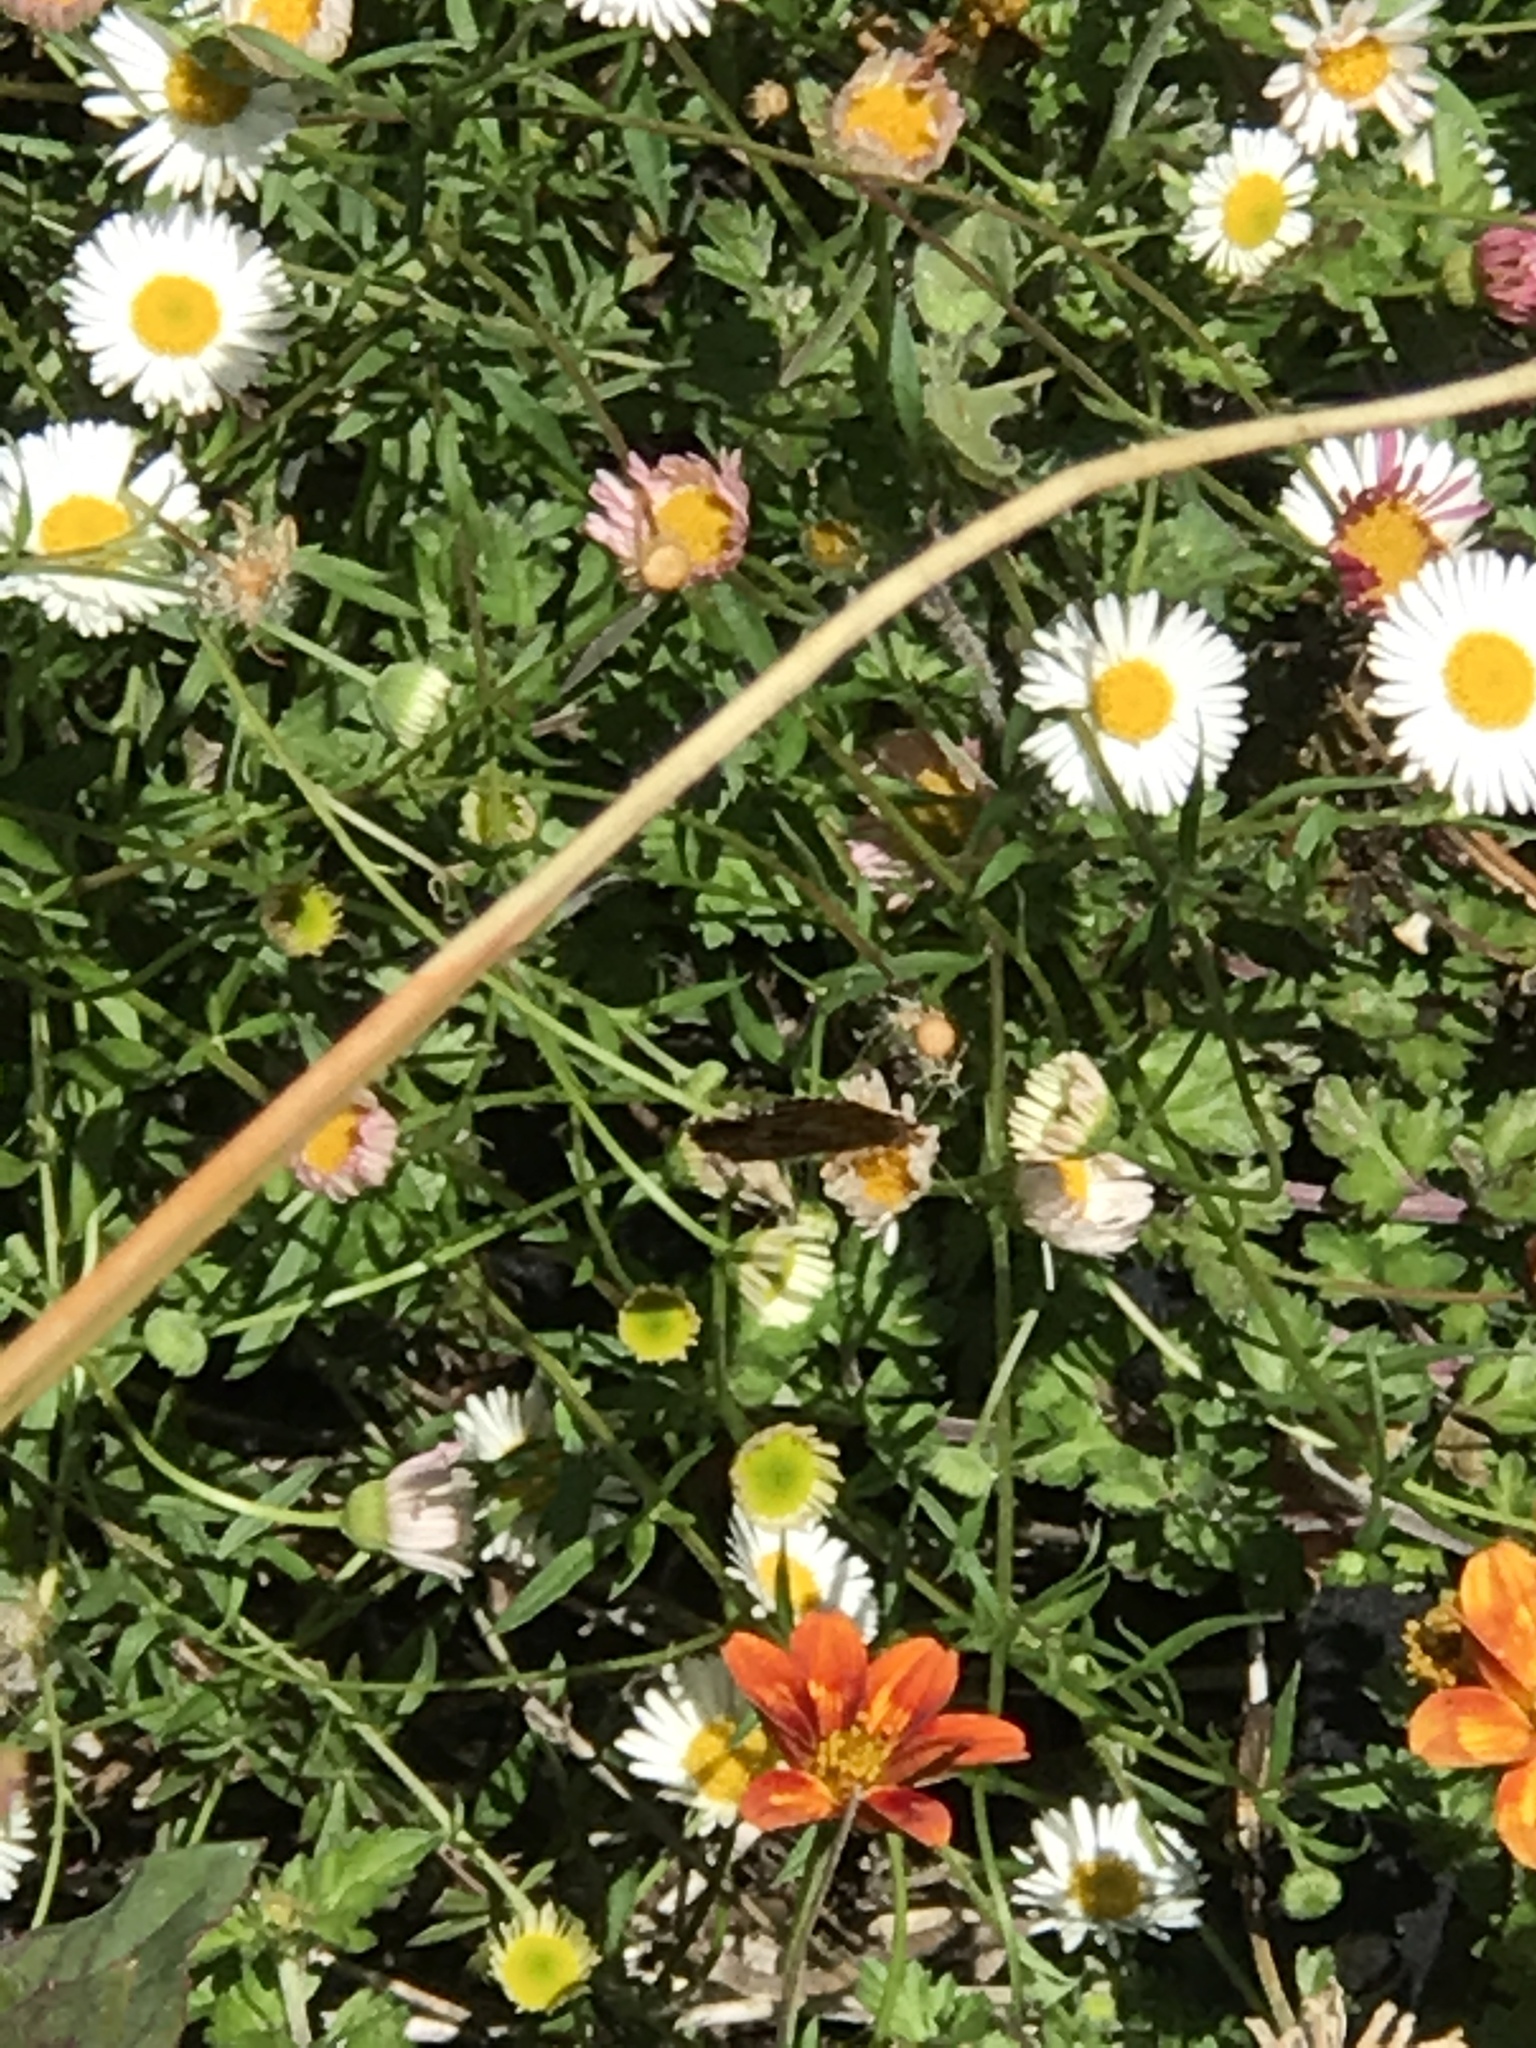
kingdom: Animalia
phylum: Arthropoda
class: Insecta
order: Lepidoptera
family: Nymphalidae
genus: Phyciodes
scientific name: Phyciodes tharos
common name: Pearl crescent
